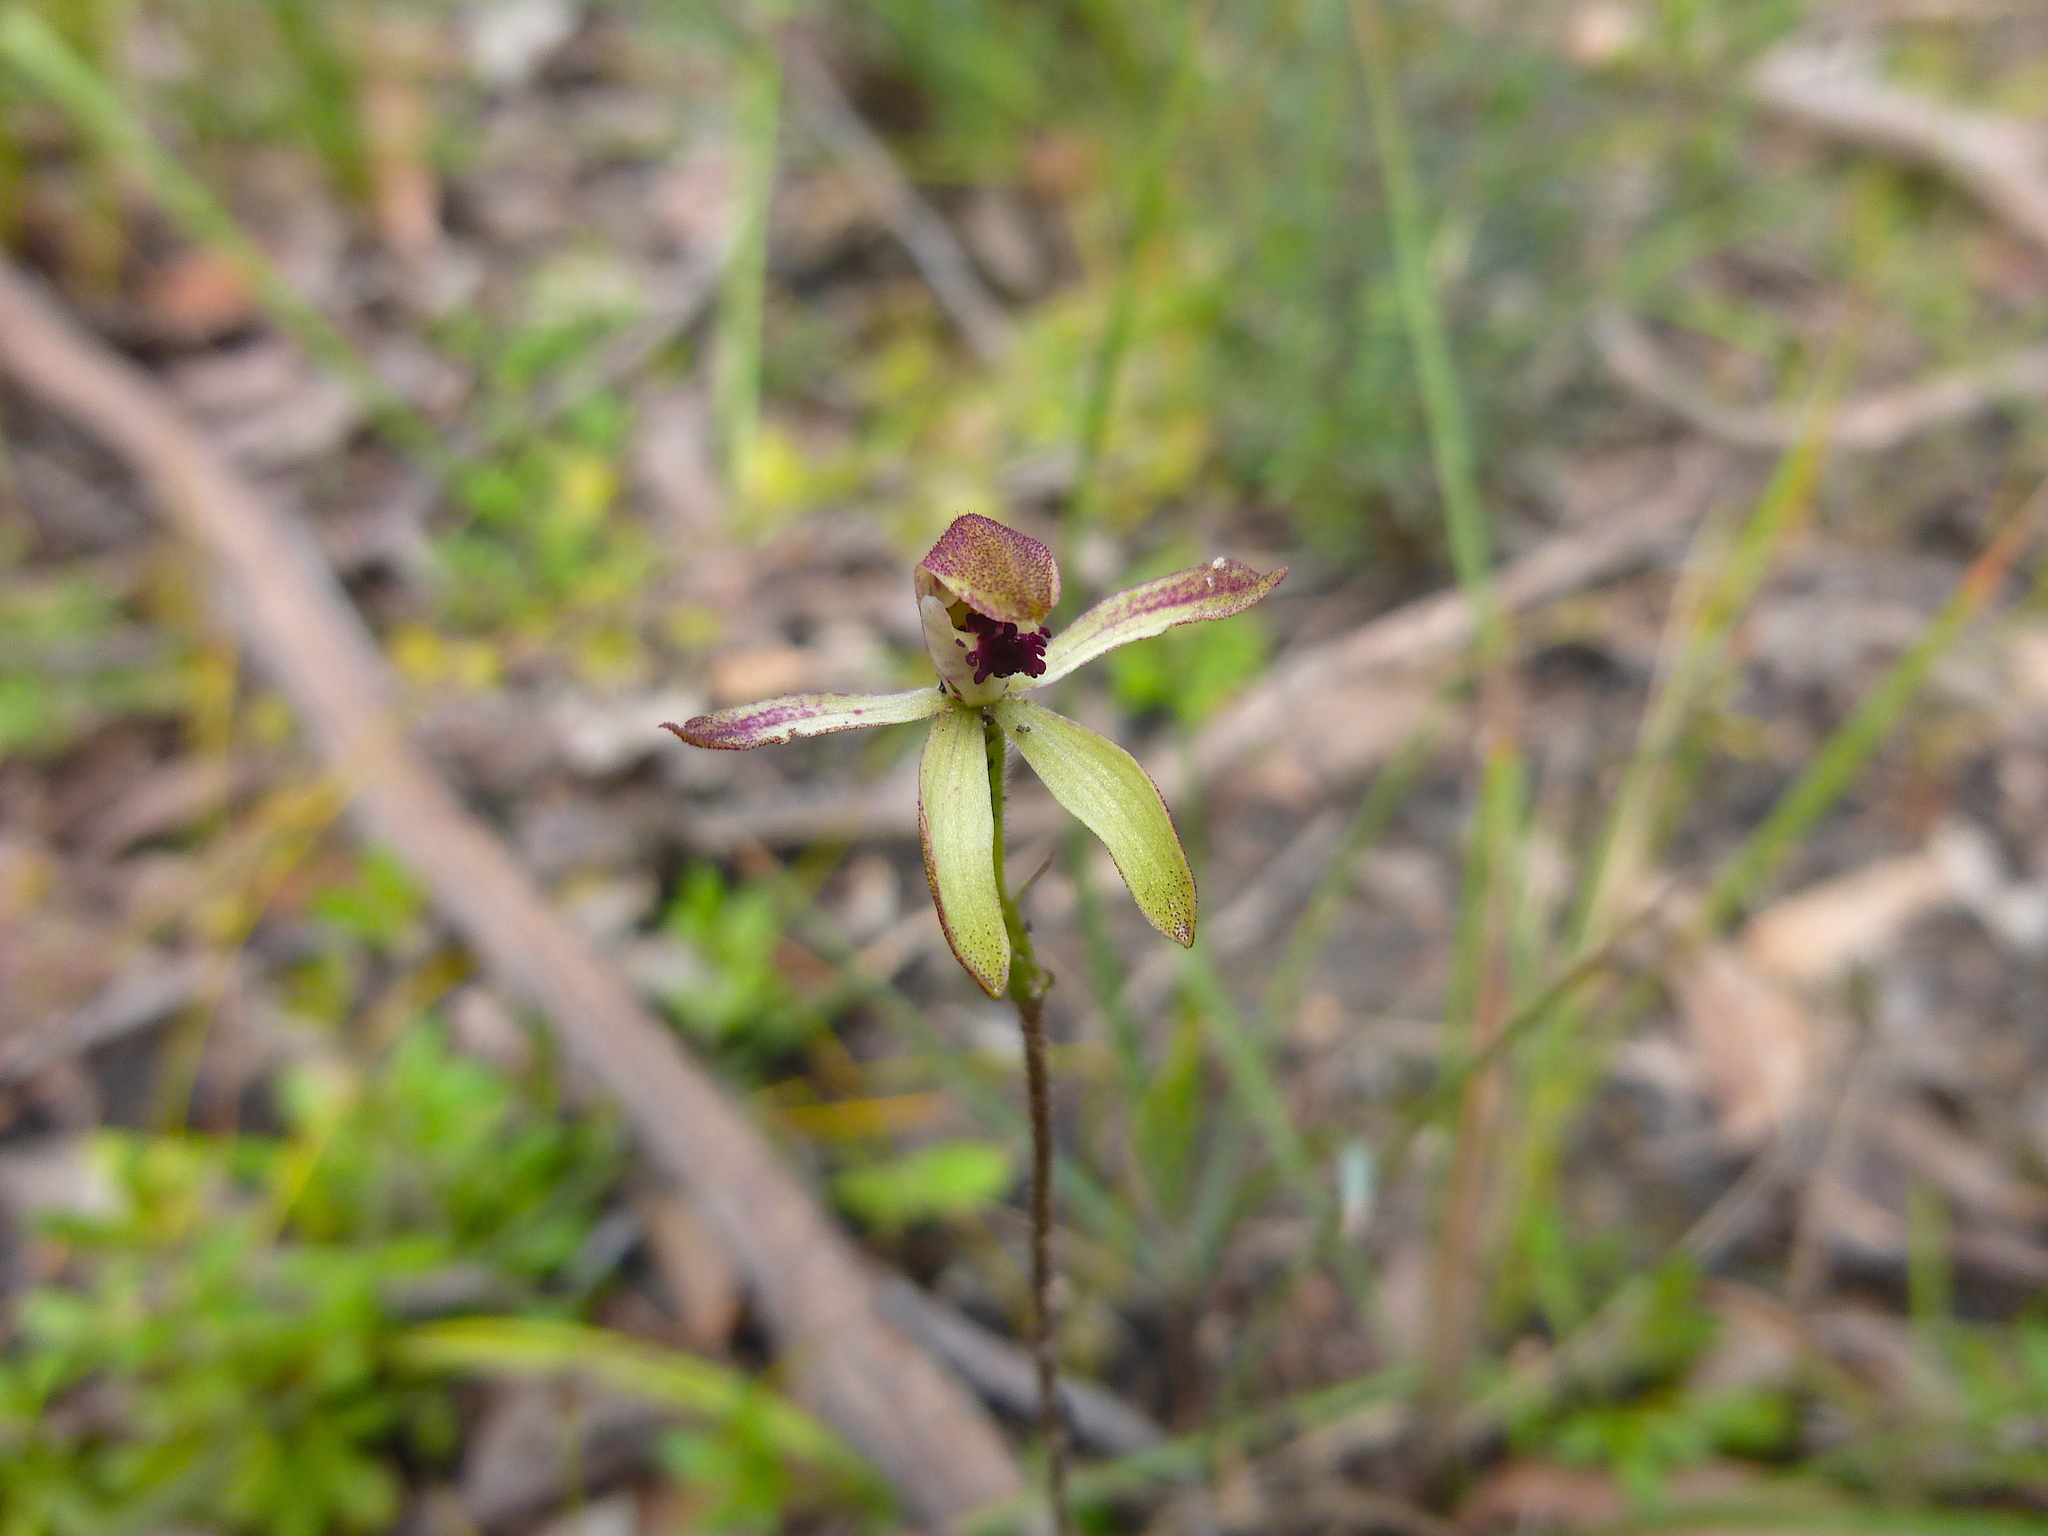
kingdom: Plantae
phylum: Tracheophyta
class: Liliopsida
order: Asparagales
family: Orchidaceae
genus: Caladenia
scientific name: Caladenia transitoria
